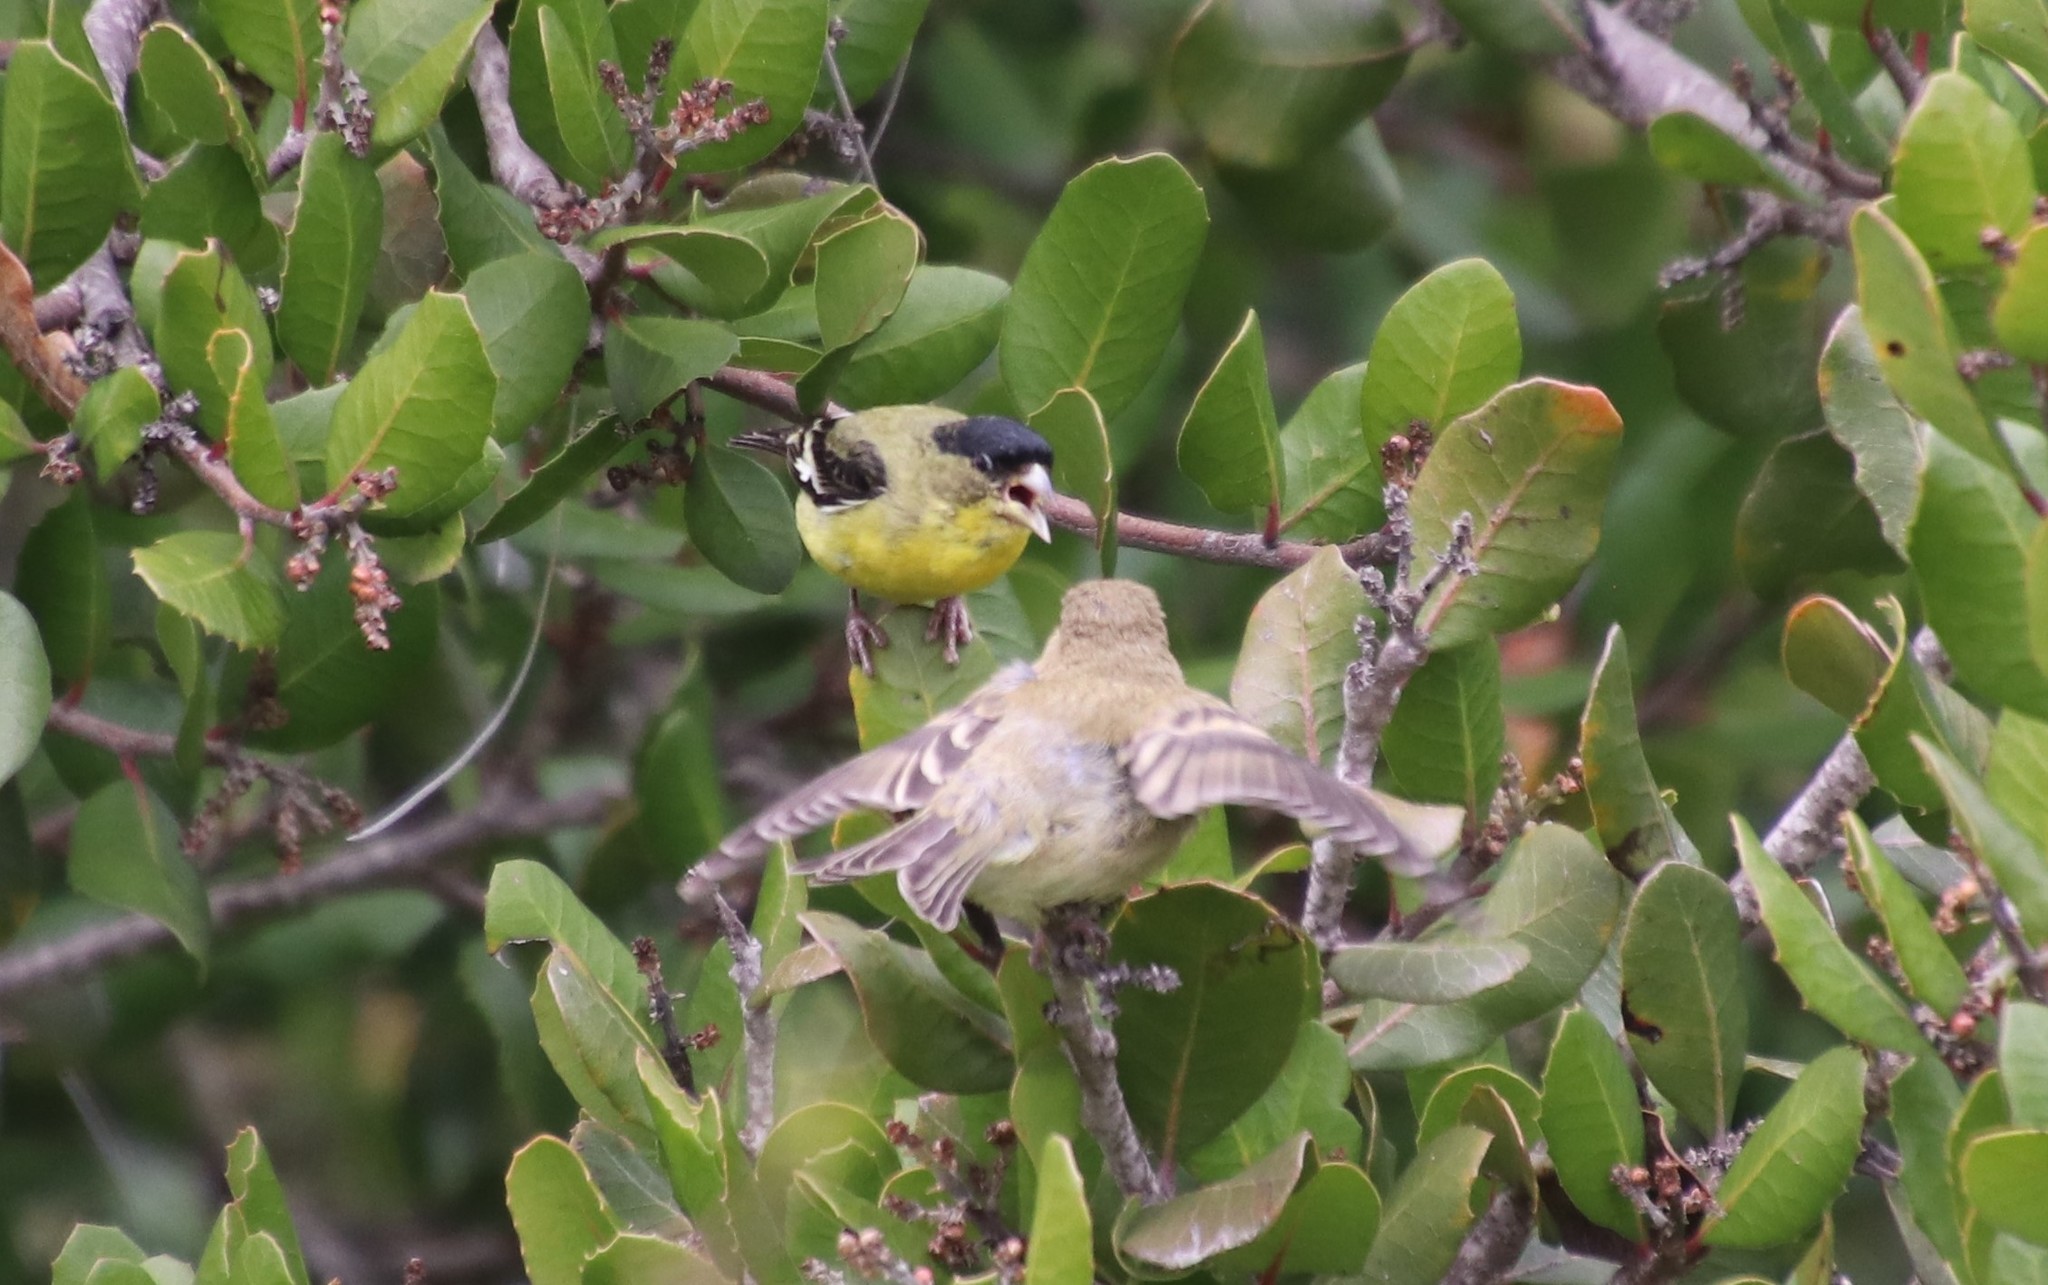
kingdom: Animalia
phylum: Chordata
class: Aves
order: Passeriformes
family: Fringillidae
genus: Spinus
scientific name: Spinus psaltria
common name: Lesser goldfinch
